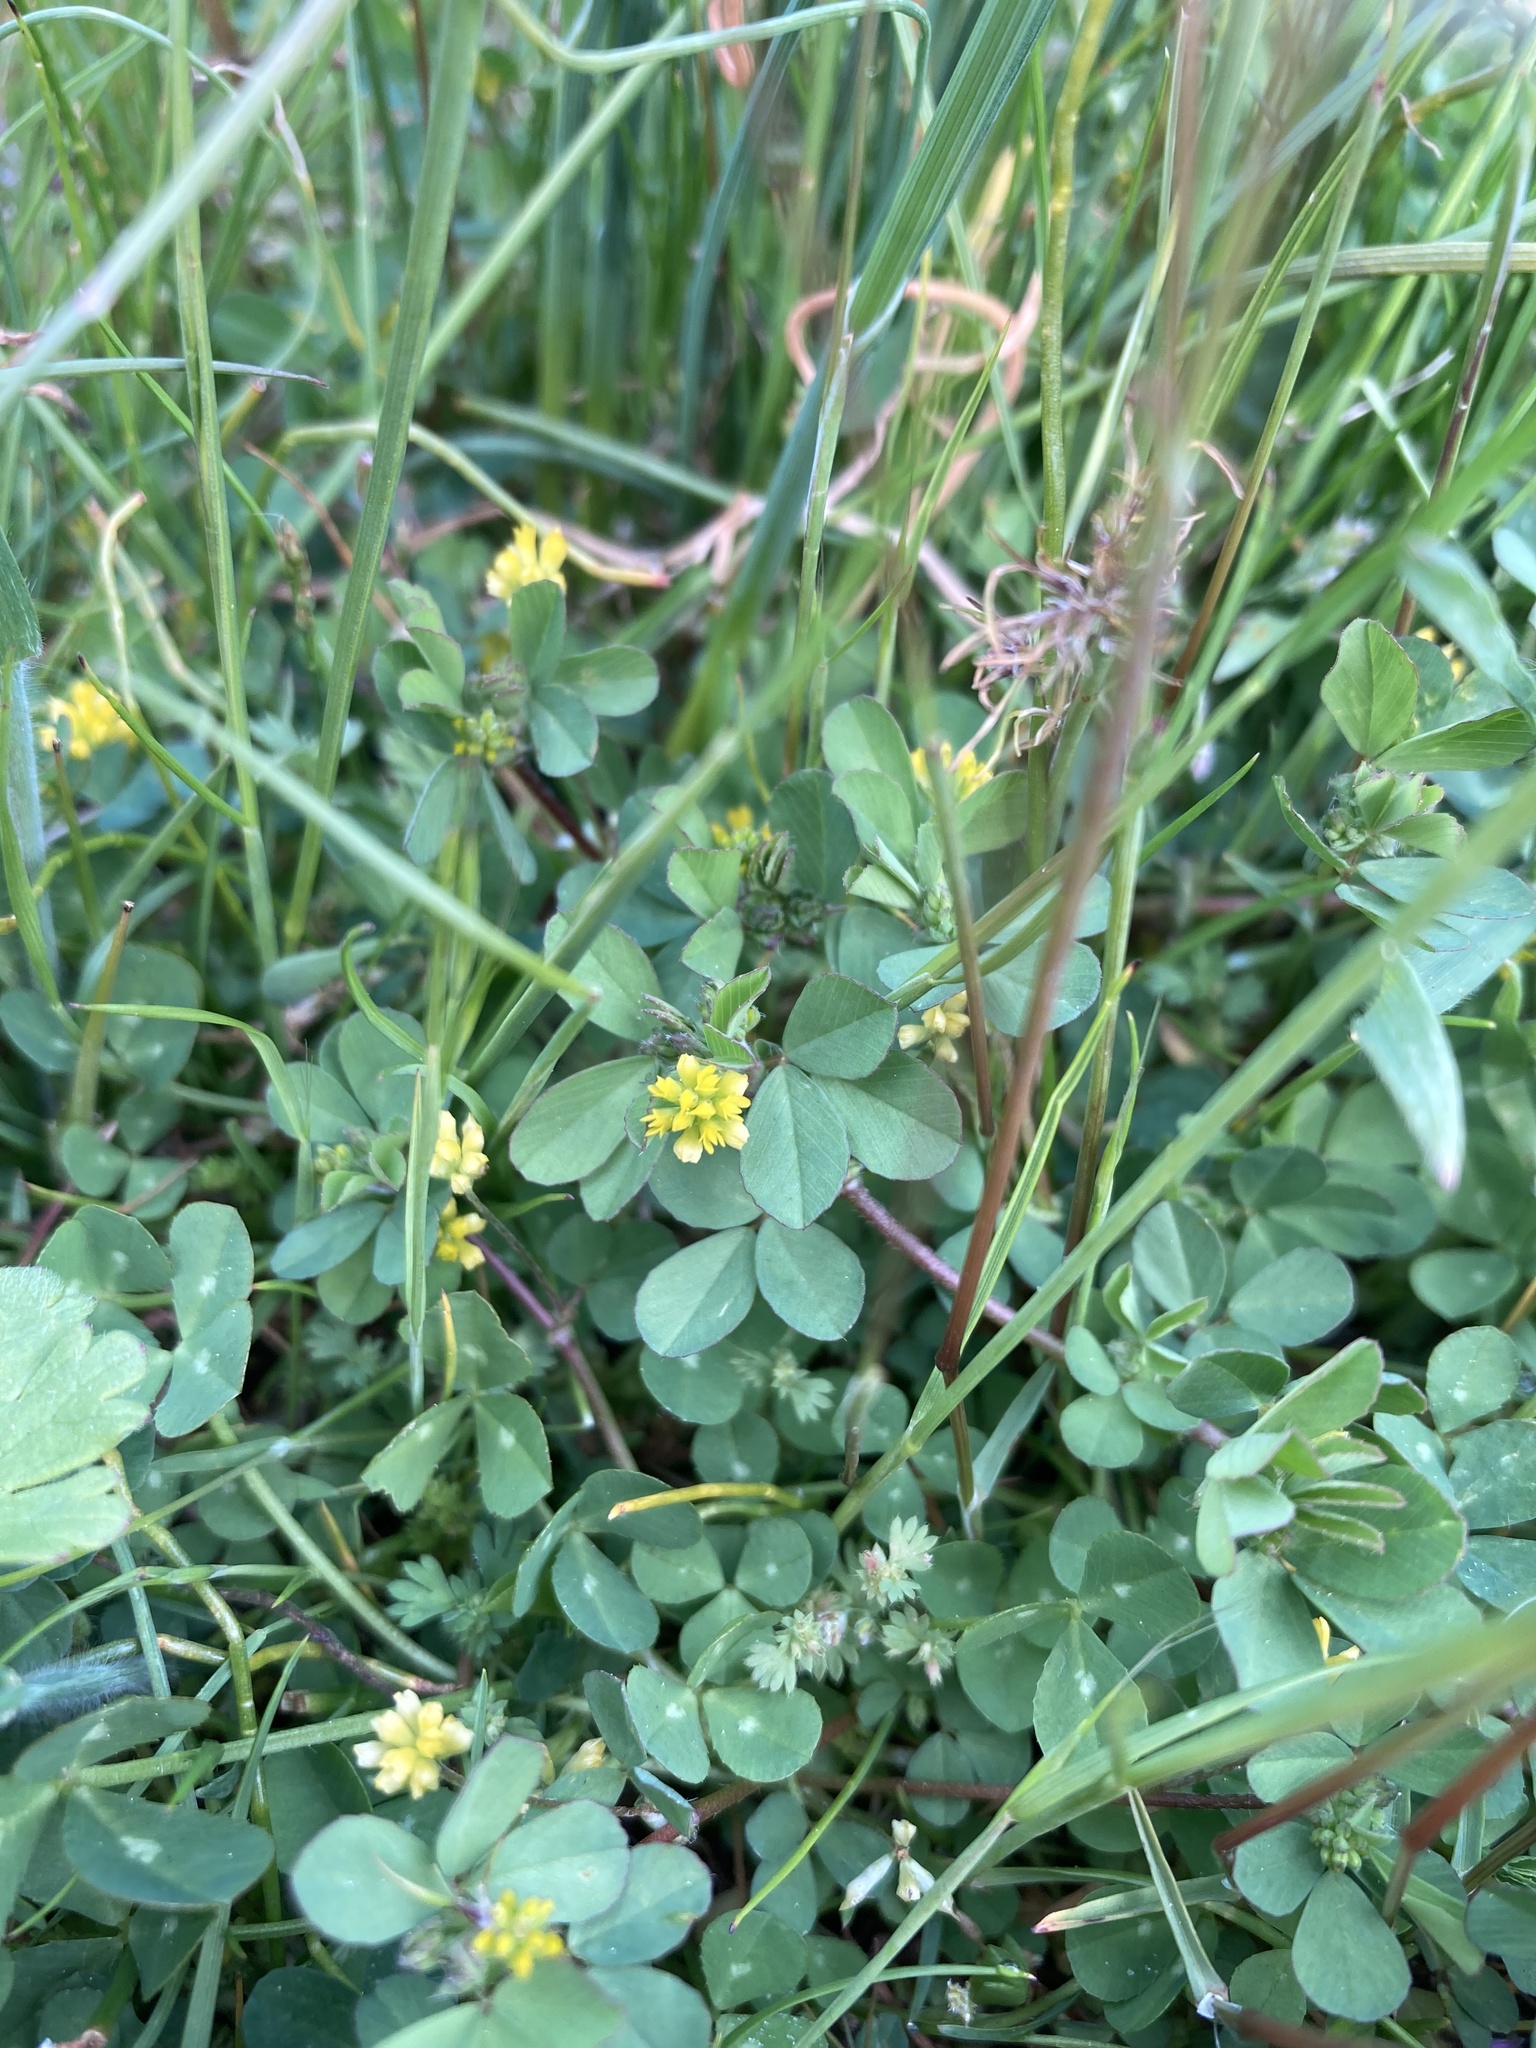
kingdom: Plantae
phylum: Tracheophyta
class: Magnoliopsida
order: Fabales
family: Fabaceae
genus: Trifolium
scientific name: Trifolium dubium
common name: Suckling clover
